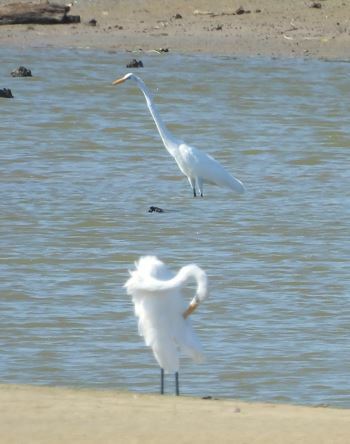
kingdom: Animalia
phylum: Chordata
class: Aves
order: Pelecaniformes
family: Ardeidae
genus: Ardea
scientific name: Ardea alba
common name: Great egret
